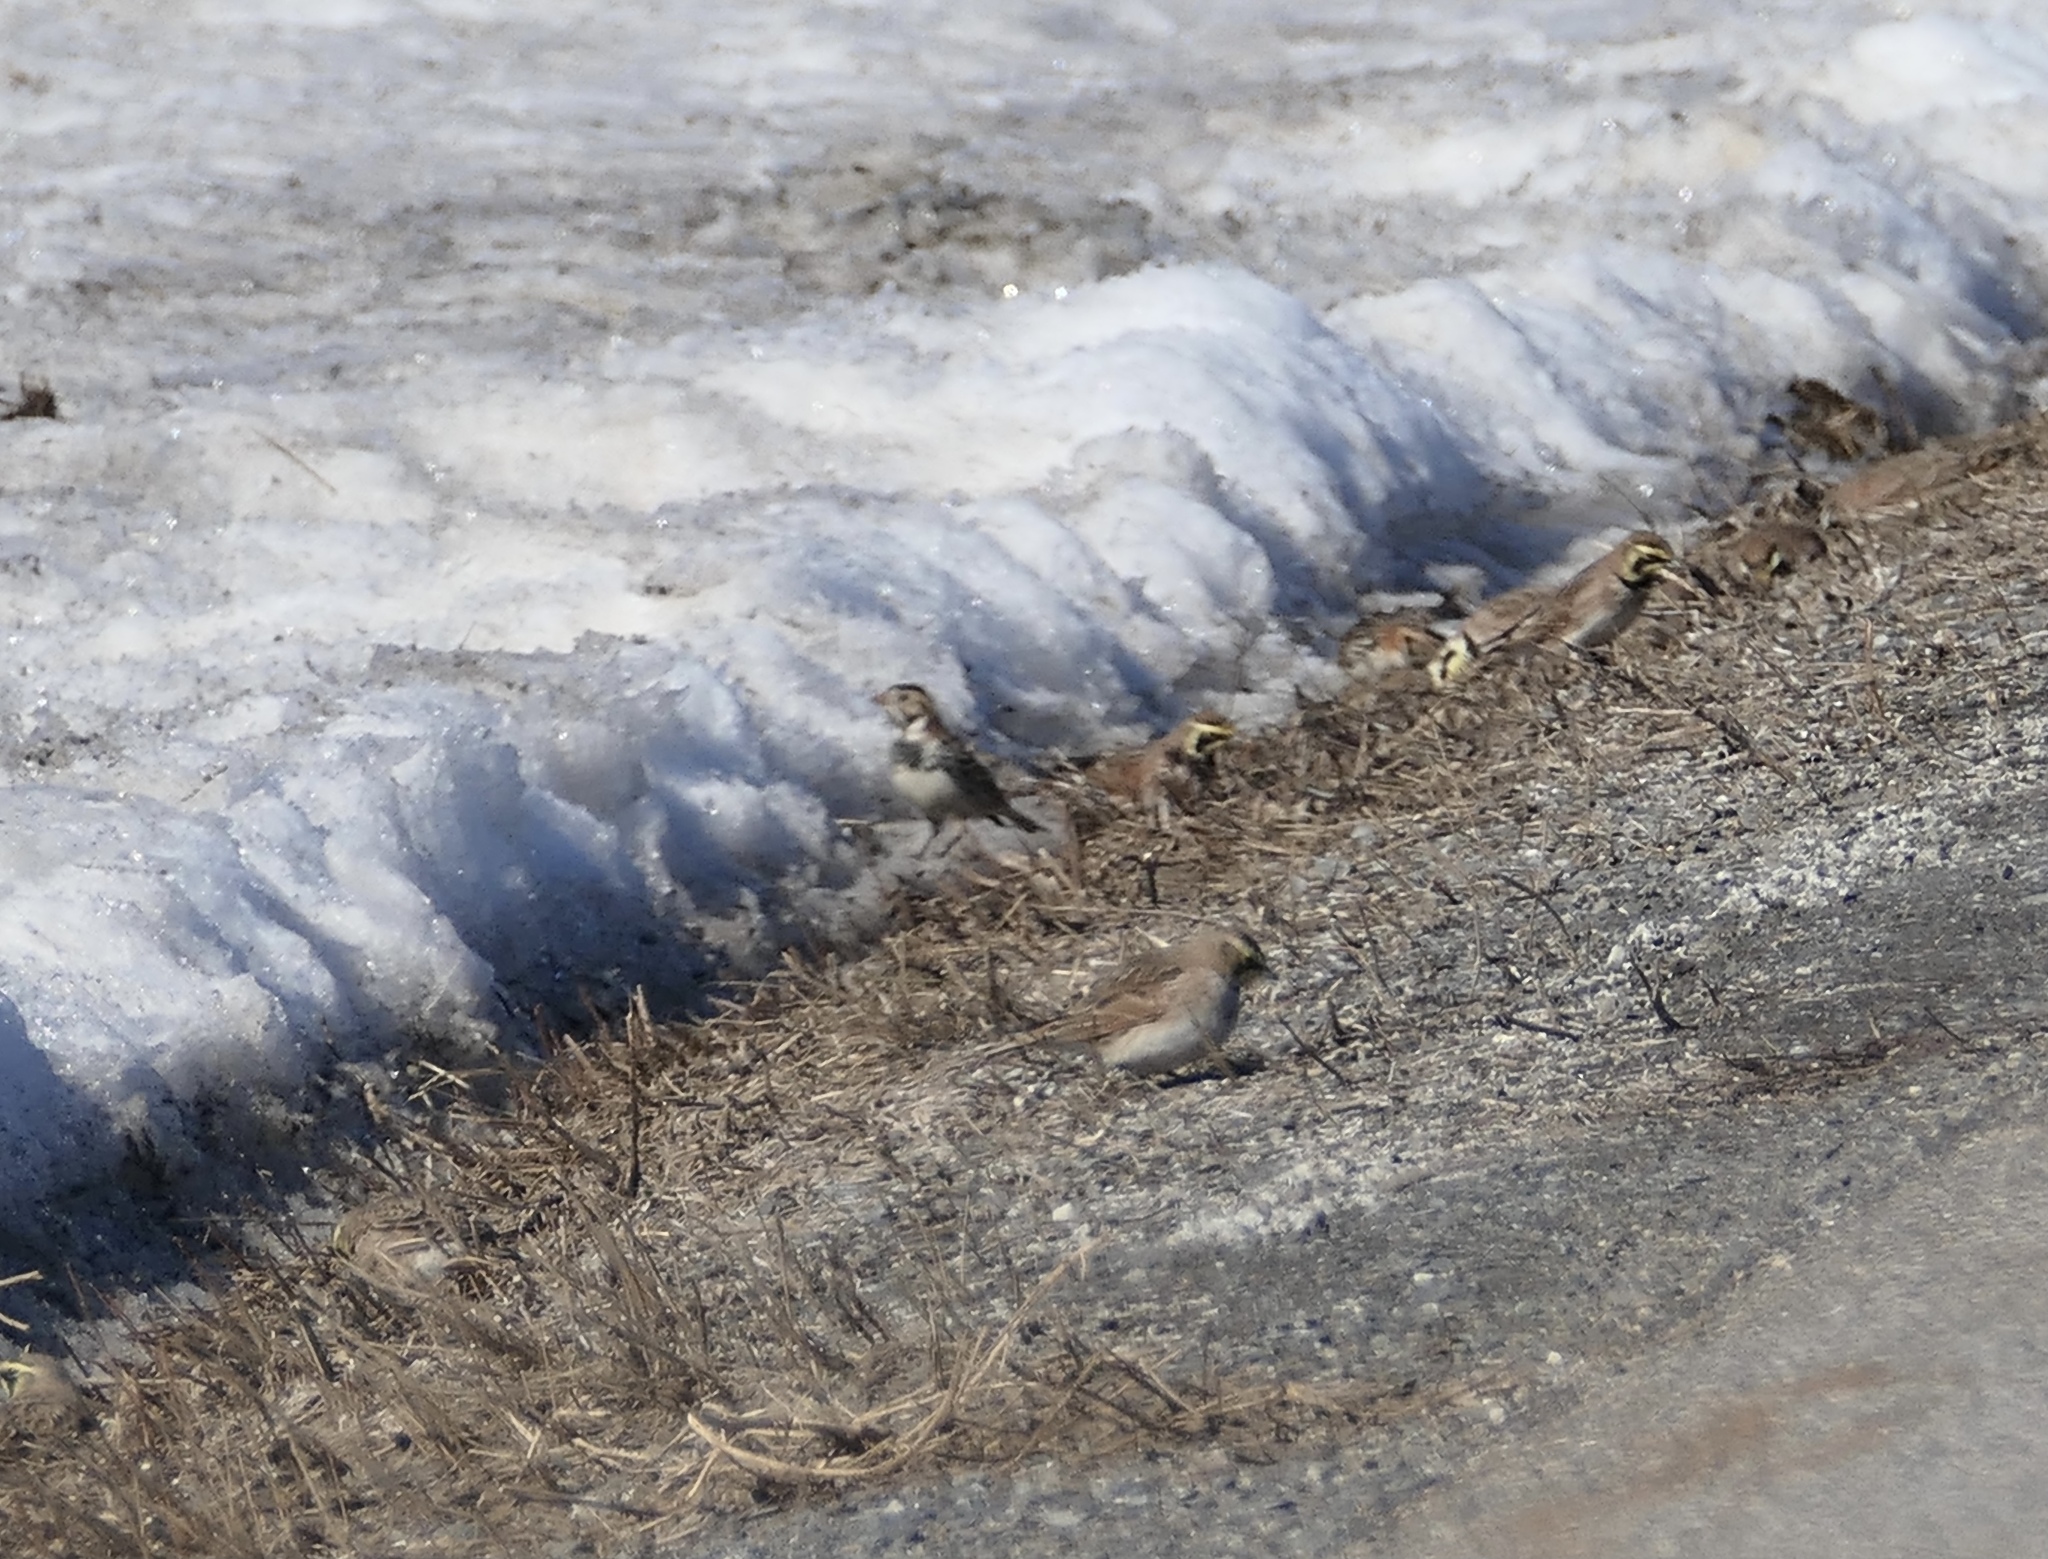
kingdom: Animalia
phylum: Chordata
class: Aves
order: Passeriformes
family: Calcariidae
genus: Calcarius
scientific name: Calcarius lapponicus
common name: Lapland longspur
